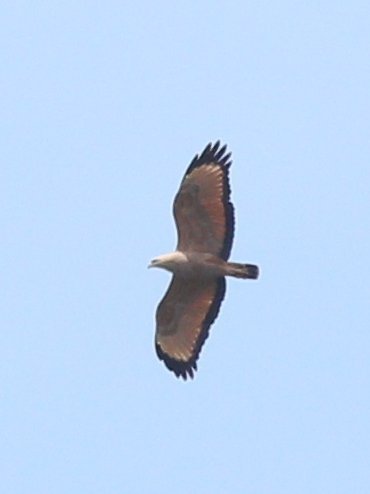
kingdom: Animalia
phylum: Chordata
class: Aves
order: Accipitriformes
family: Accipitridae
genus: Buteogallus
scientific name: Buteogallus meridionalis
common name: Savanna hawk
